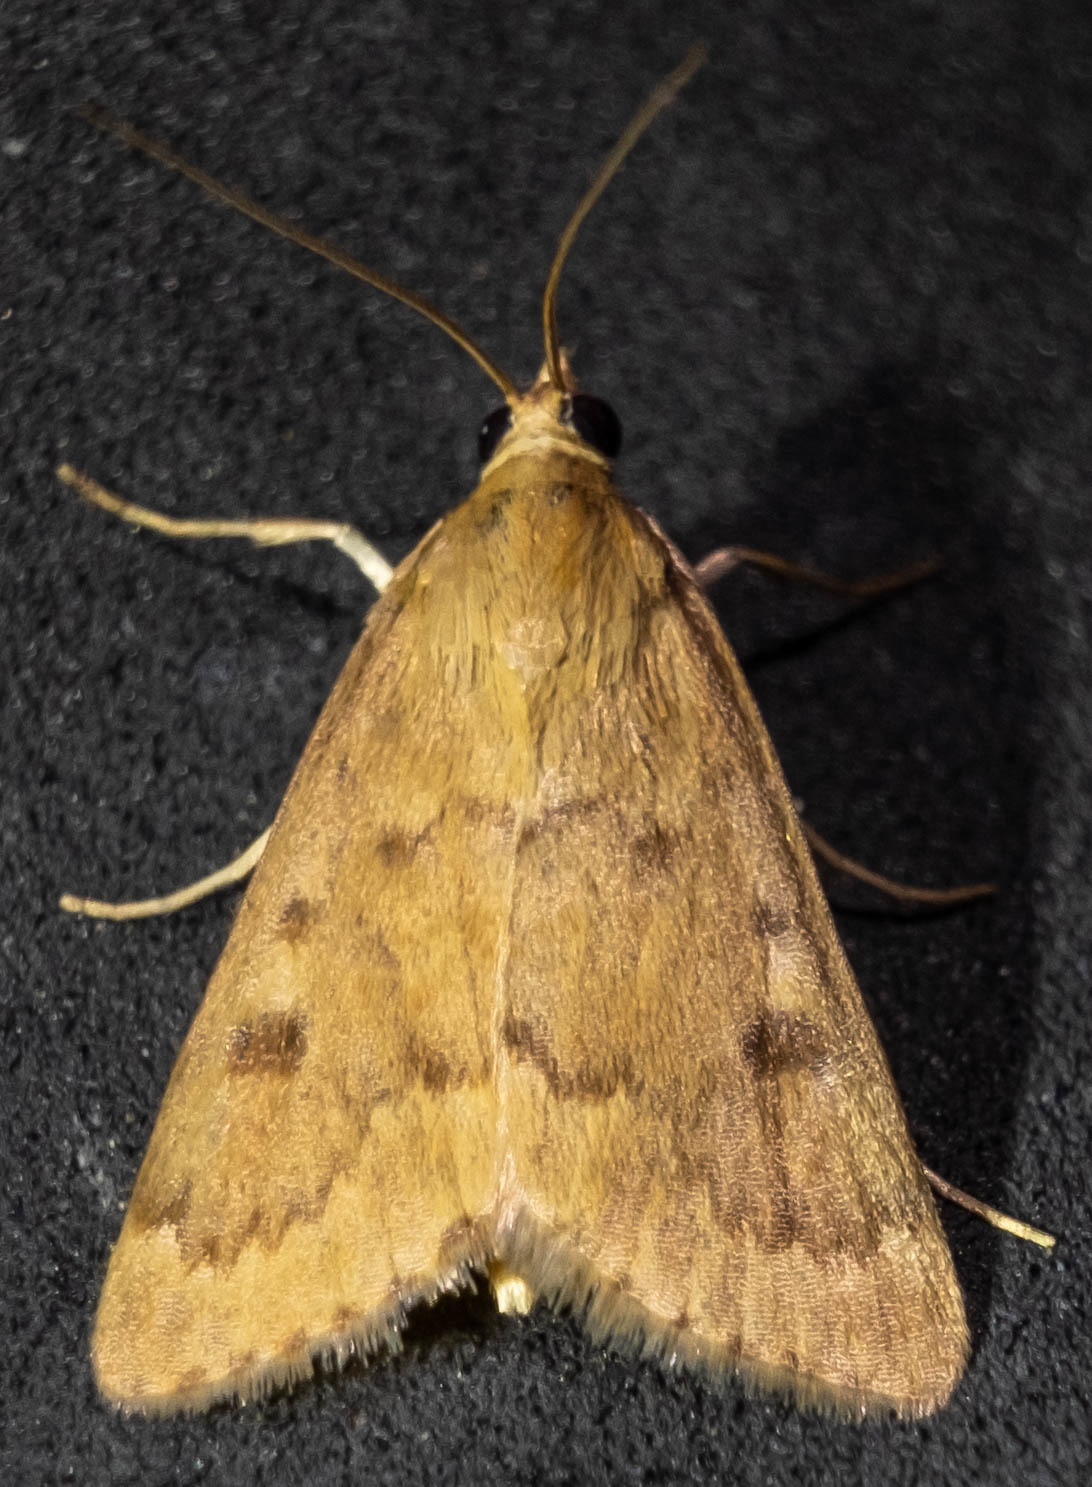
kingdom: Animalia
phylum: Arthropoda
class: Insecta
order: Lepidoptera
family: Crambidae
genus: Achyra
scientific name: Achyra rantalis
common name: Garden webworm
